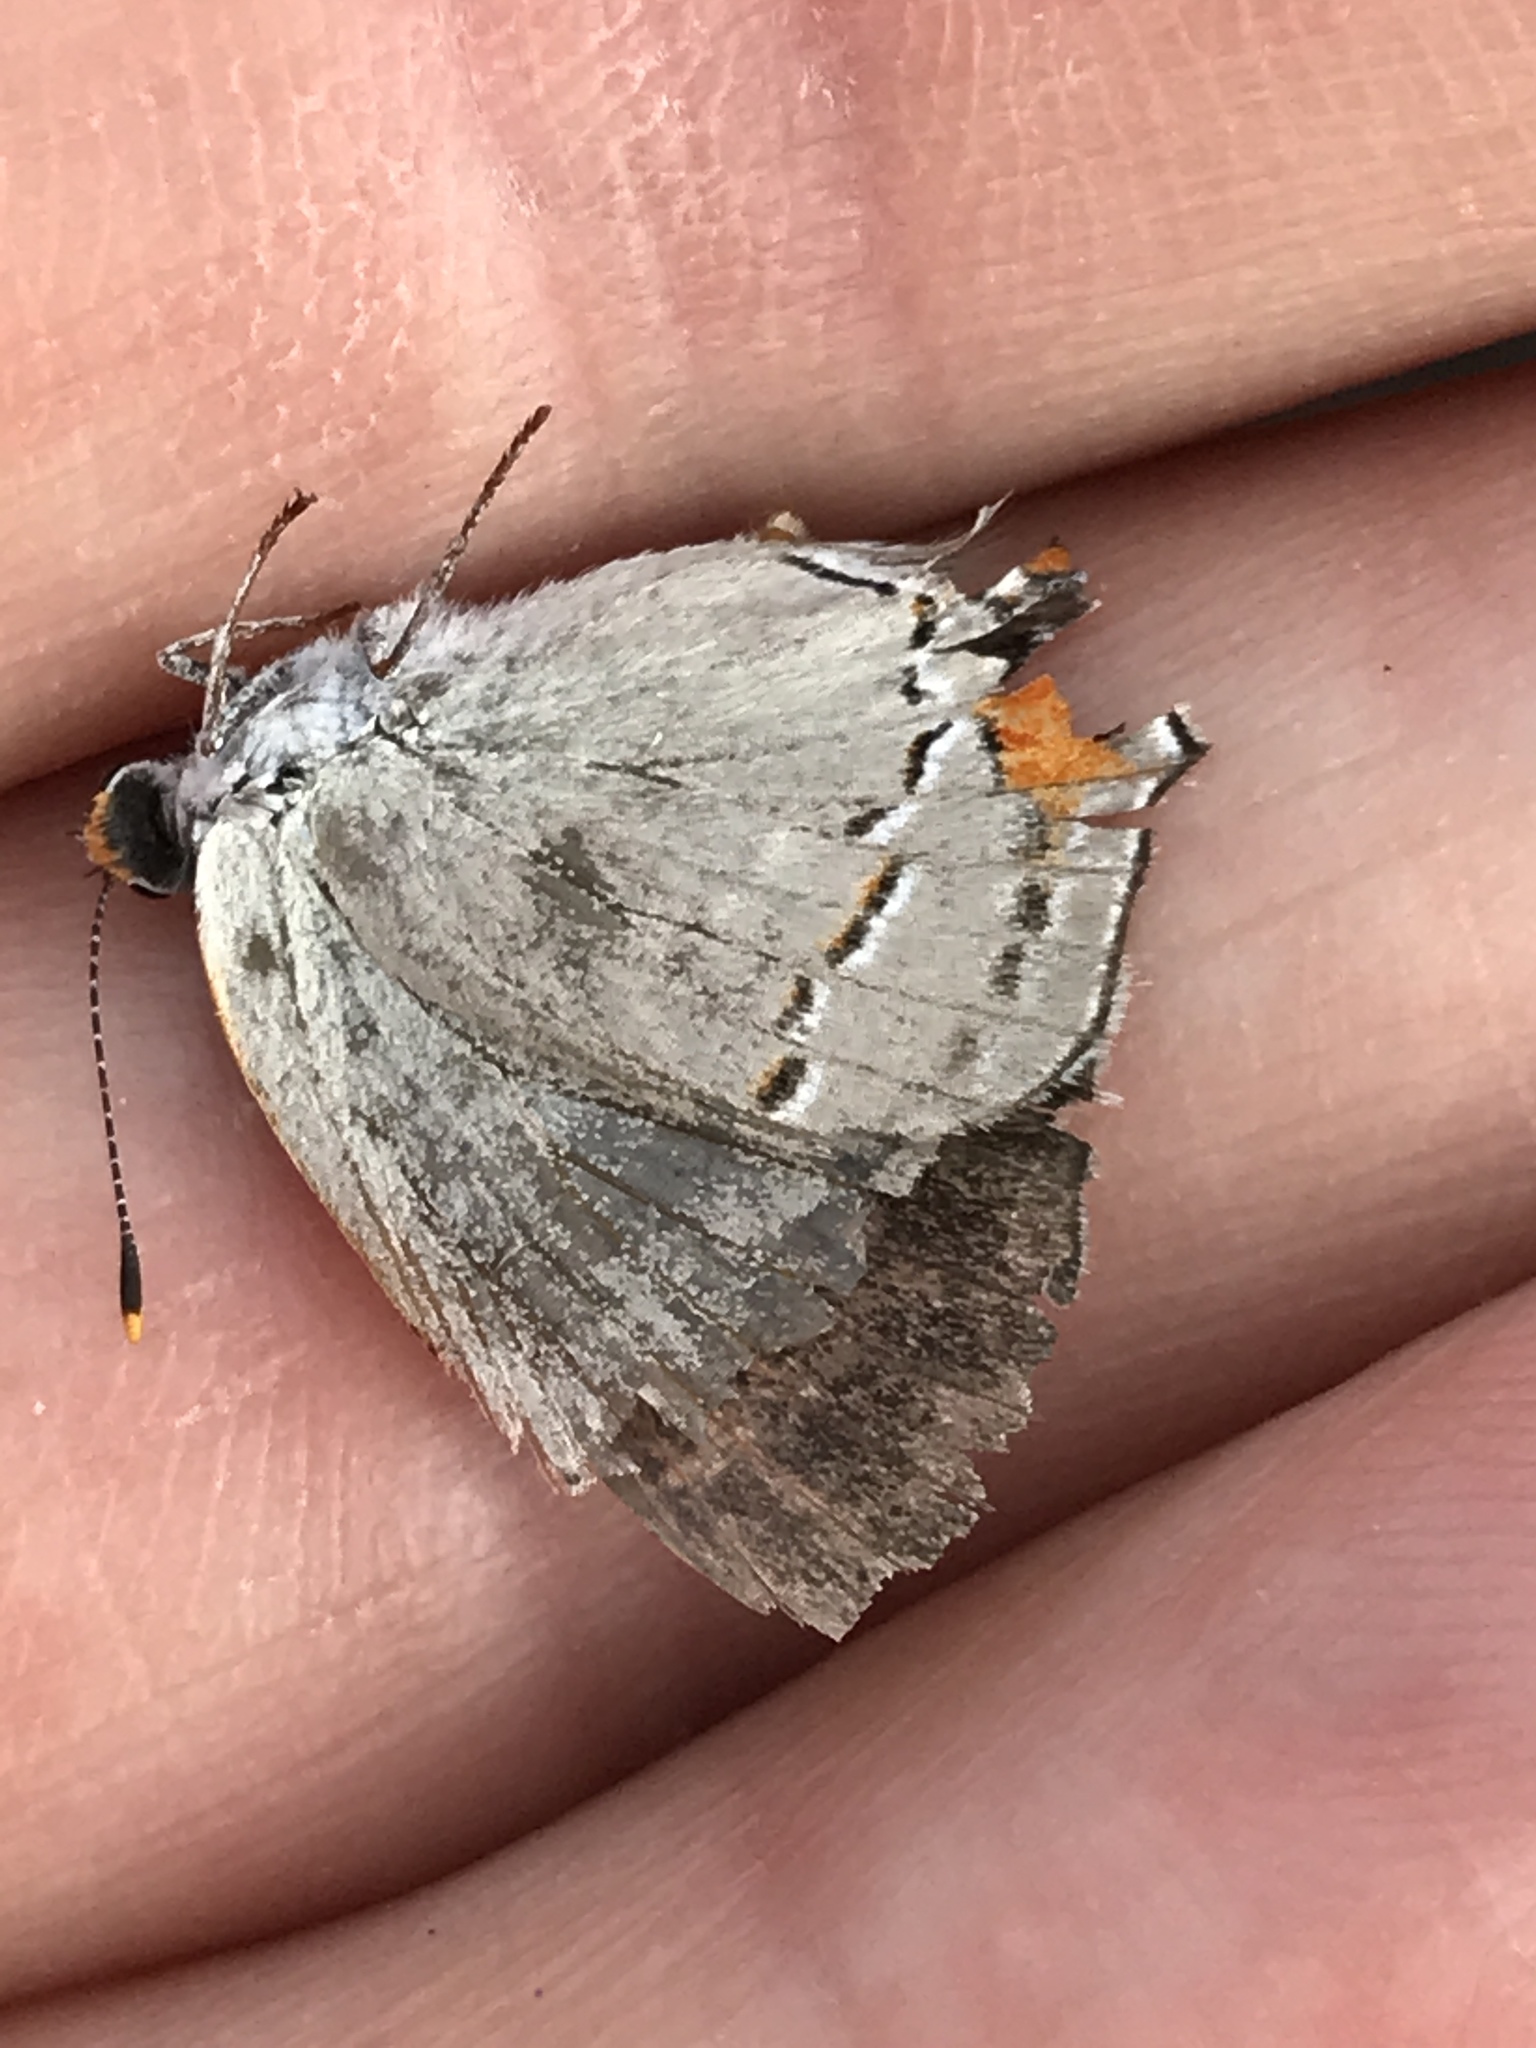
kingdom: Animalia
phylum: Arthropoda
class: Insecta
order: Lepidoptera
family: Lycaenidae
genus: Strymon
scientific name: Strymon melinus
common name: Gray hairstreak
